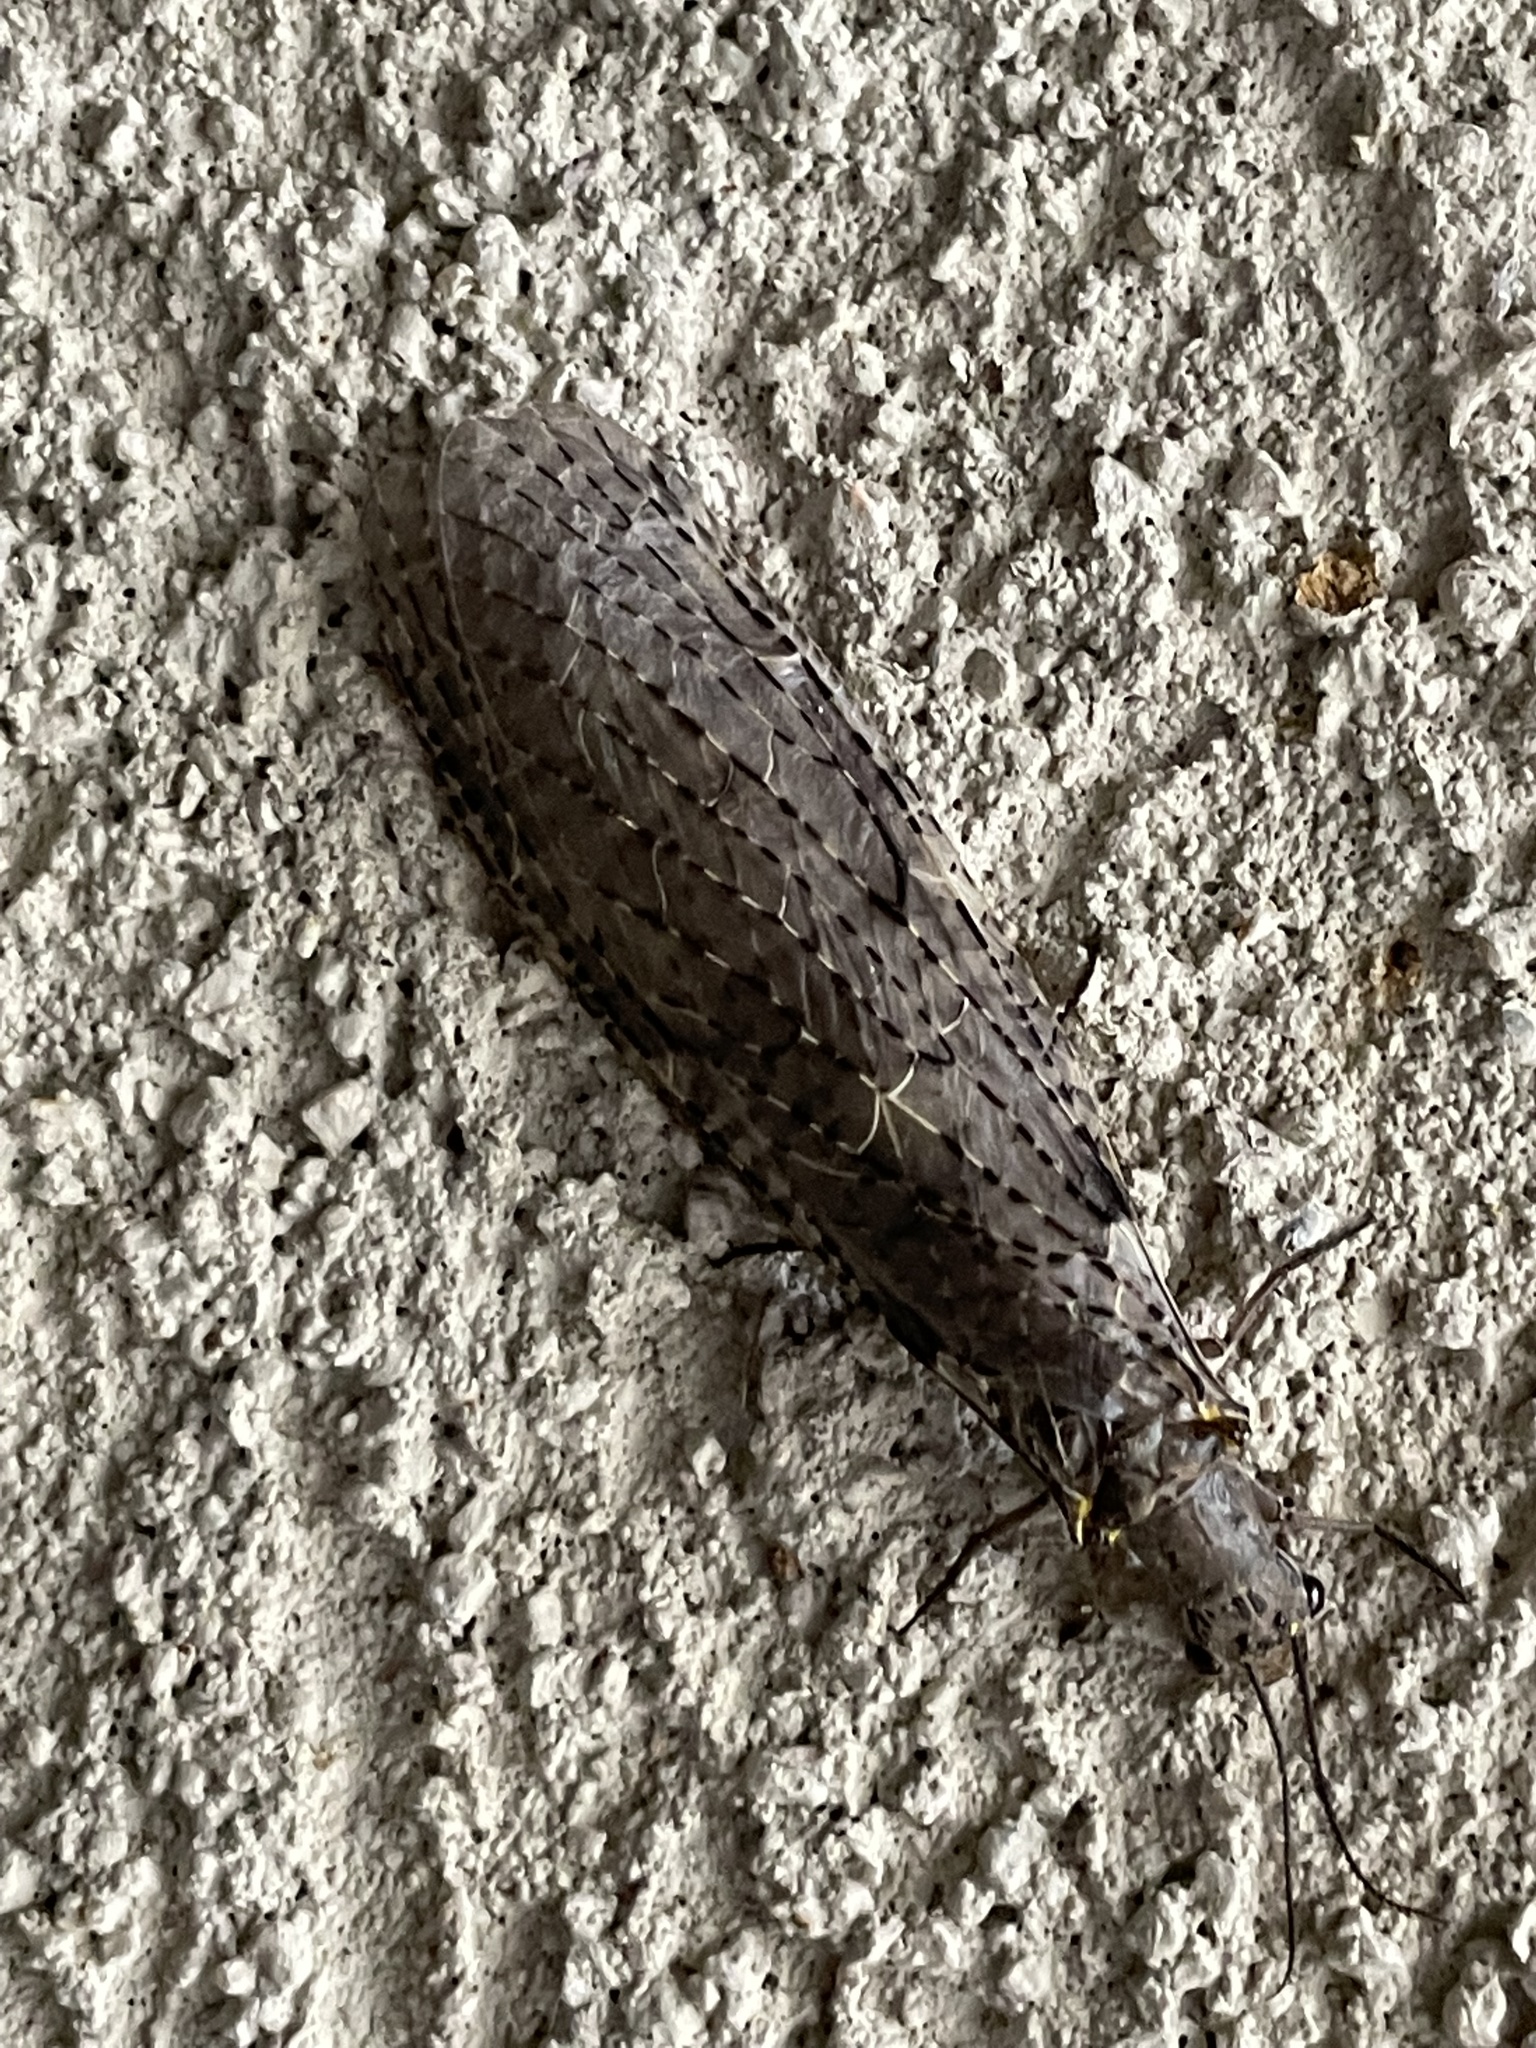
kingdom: Animalia
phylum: Arthropoda
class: Insecta
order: Megaloptera
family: Corydalidae
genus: Chauliodes
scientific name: Chauliodes rastricornis
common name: Spring fishfly
